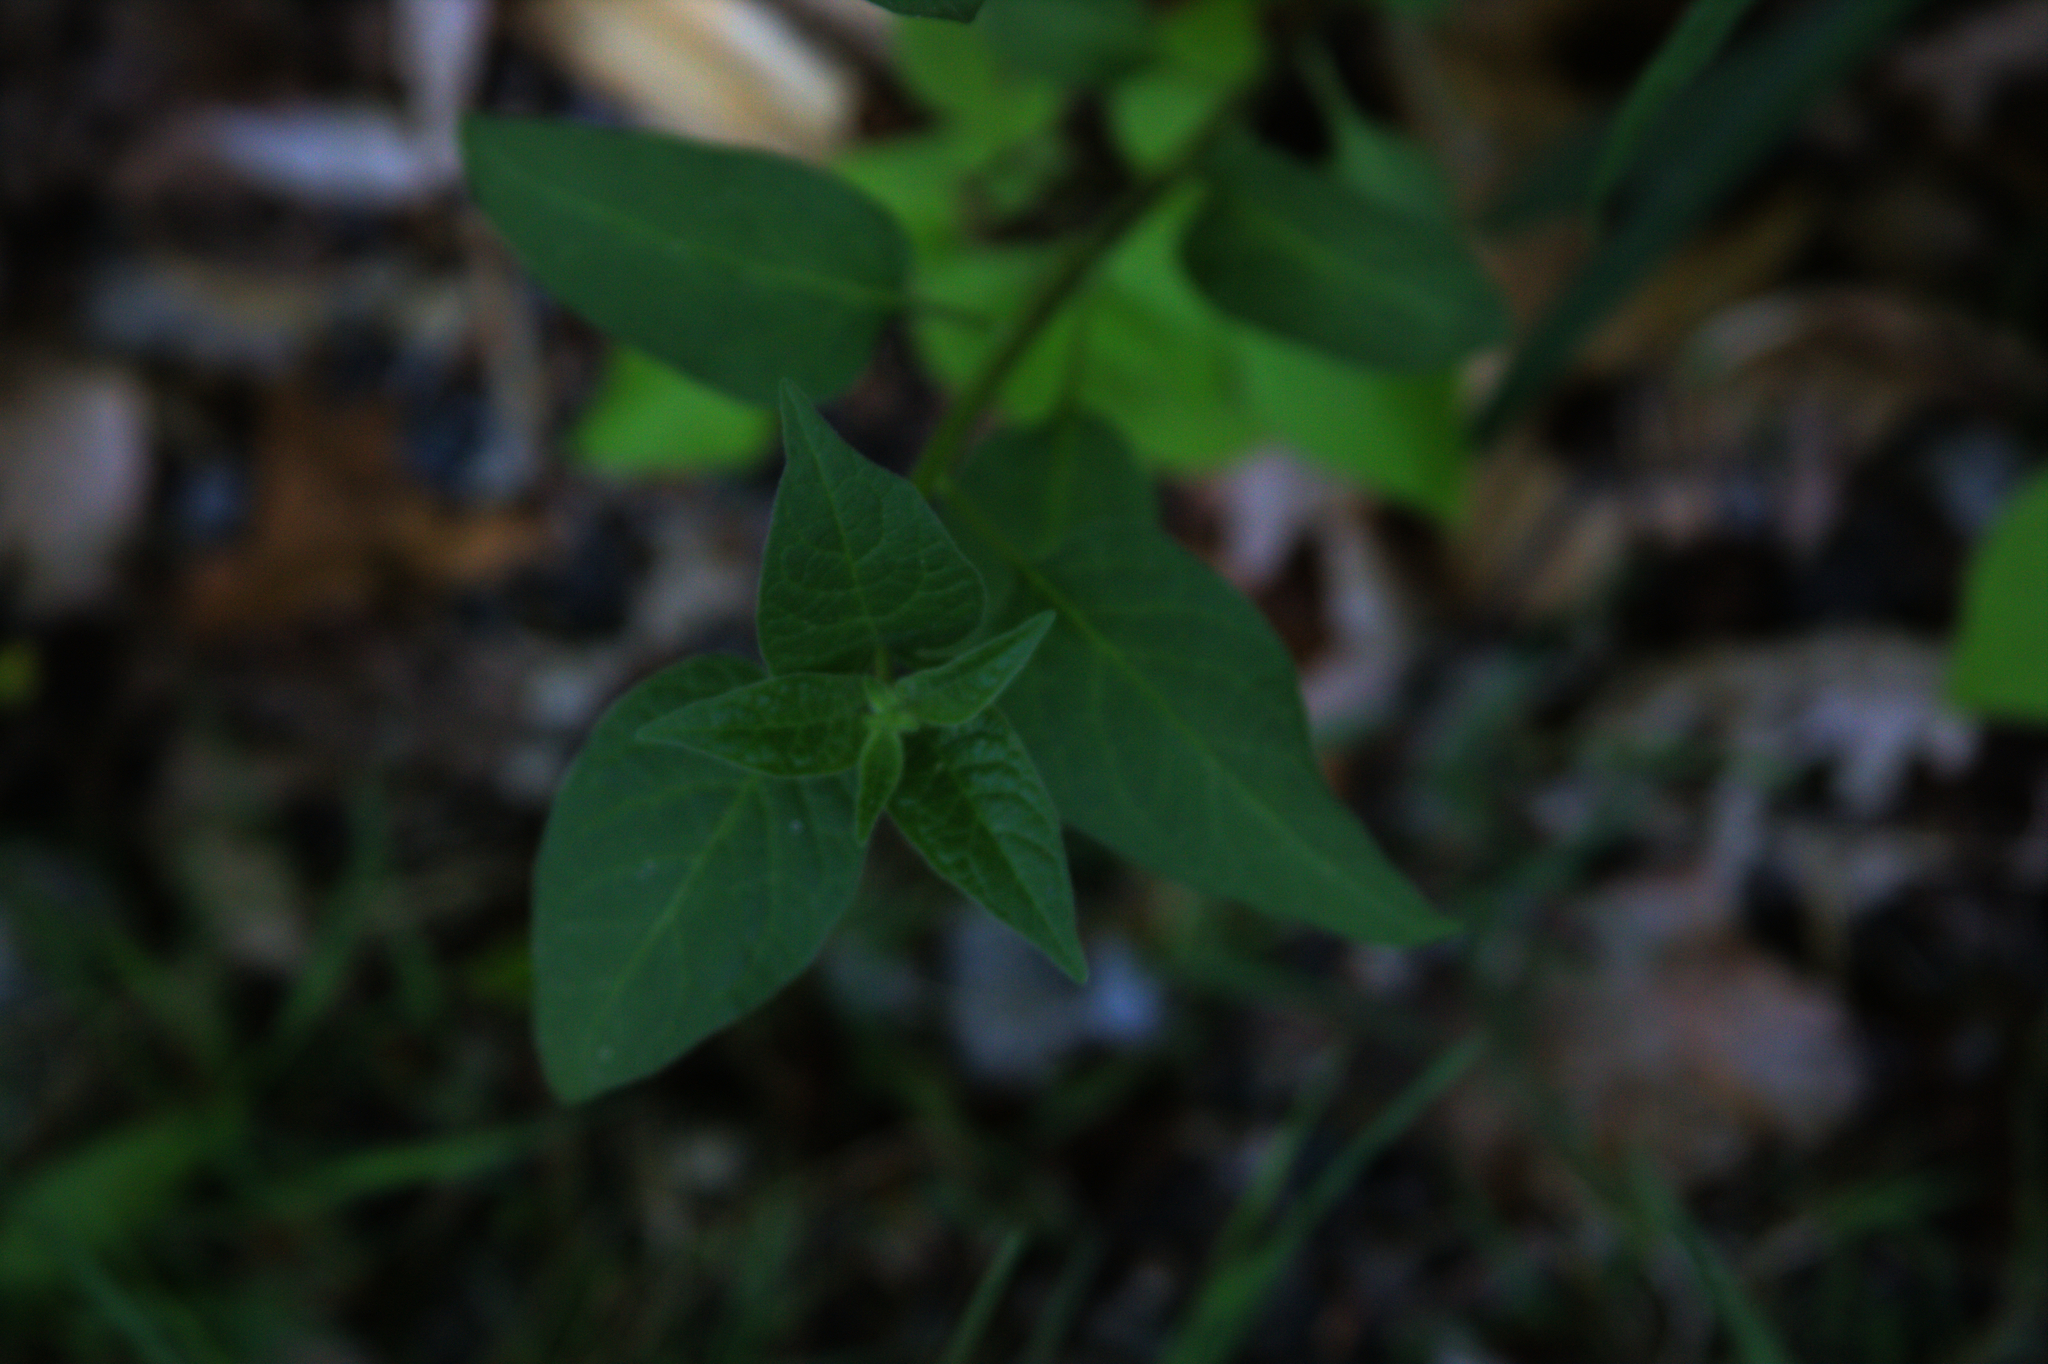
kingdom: Plantae
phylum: Tracheophyta
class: Magnoliopsida
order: Solanales
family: Solanaceae
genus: Solanum
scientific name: Solanum dulcamara
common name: Climbing nightshade
